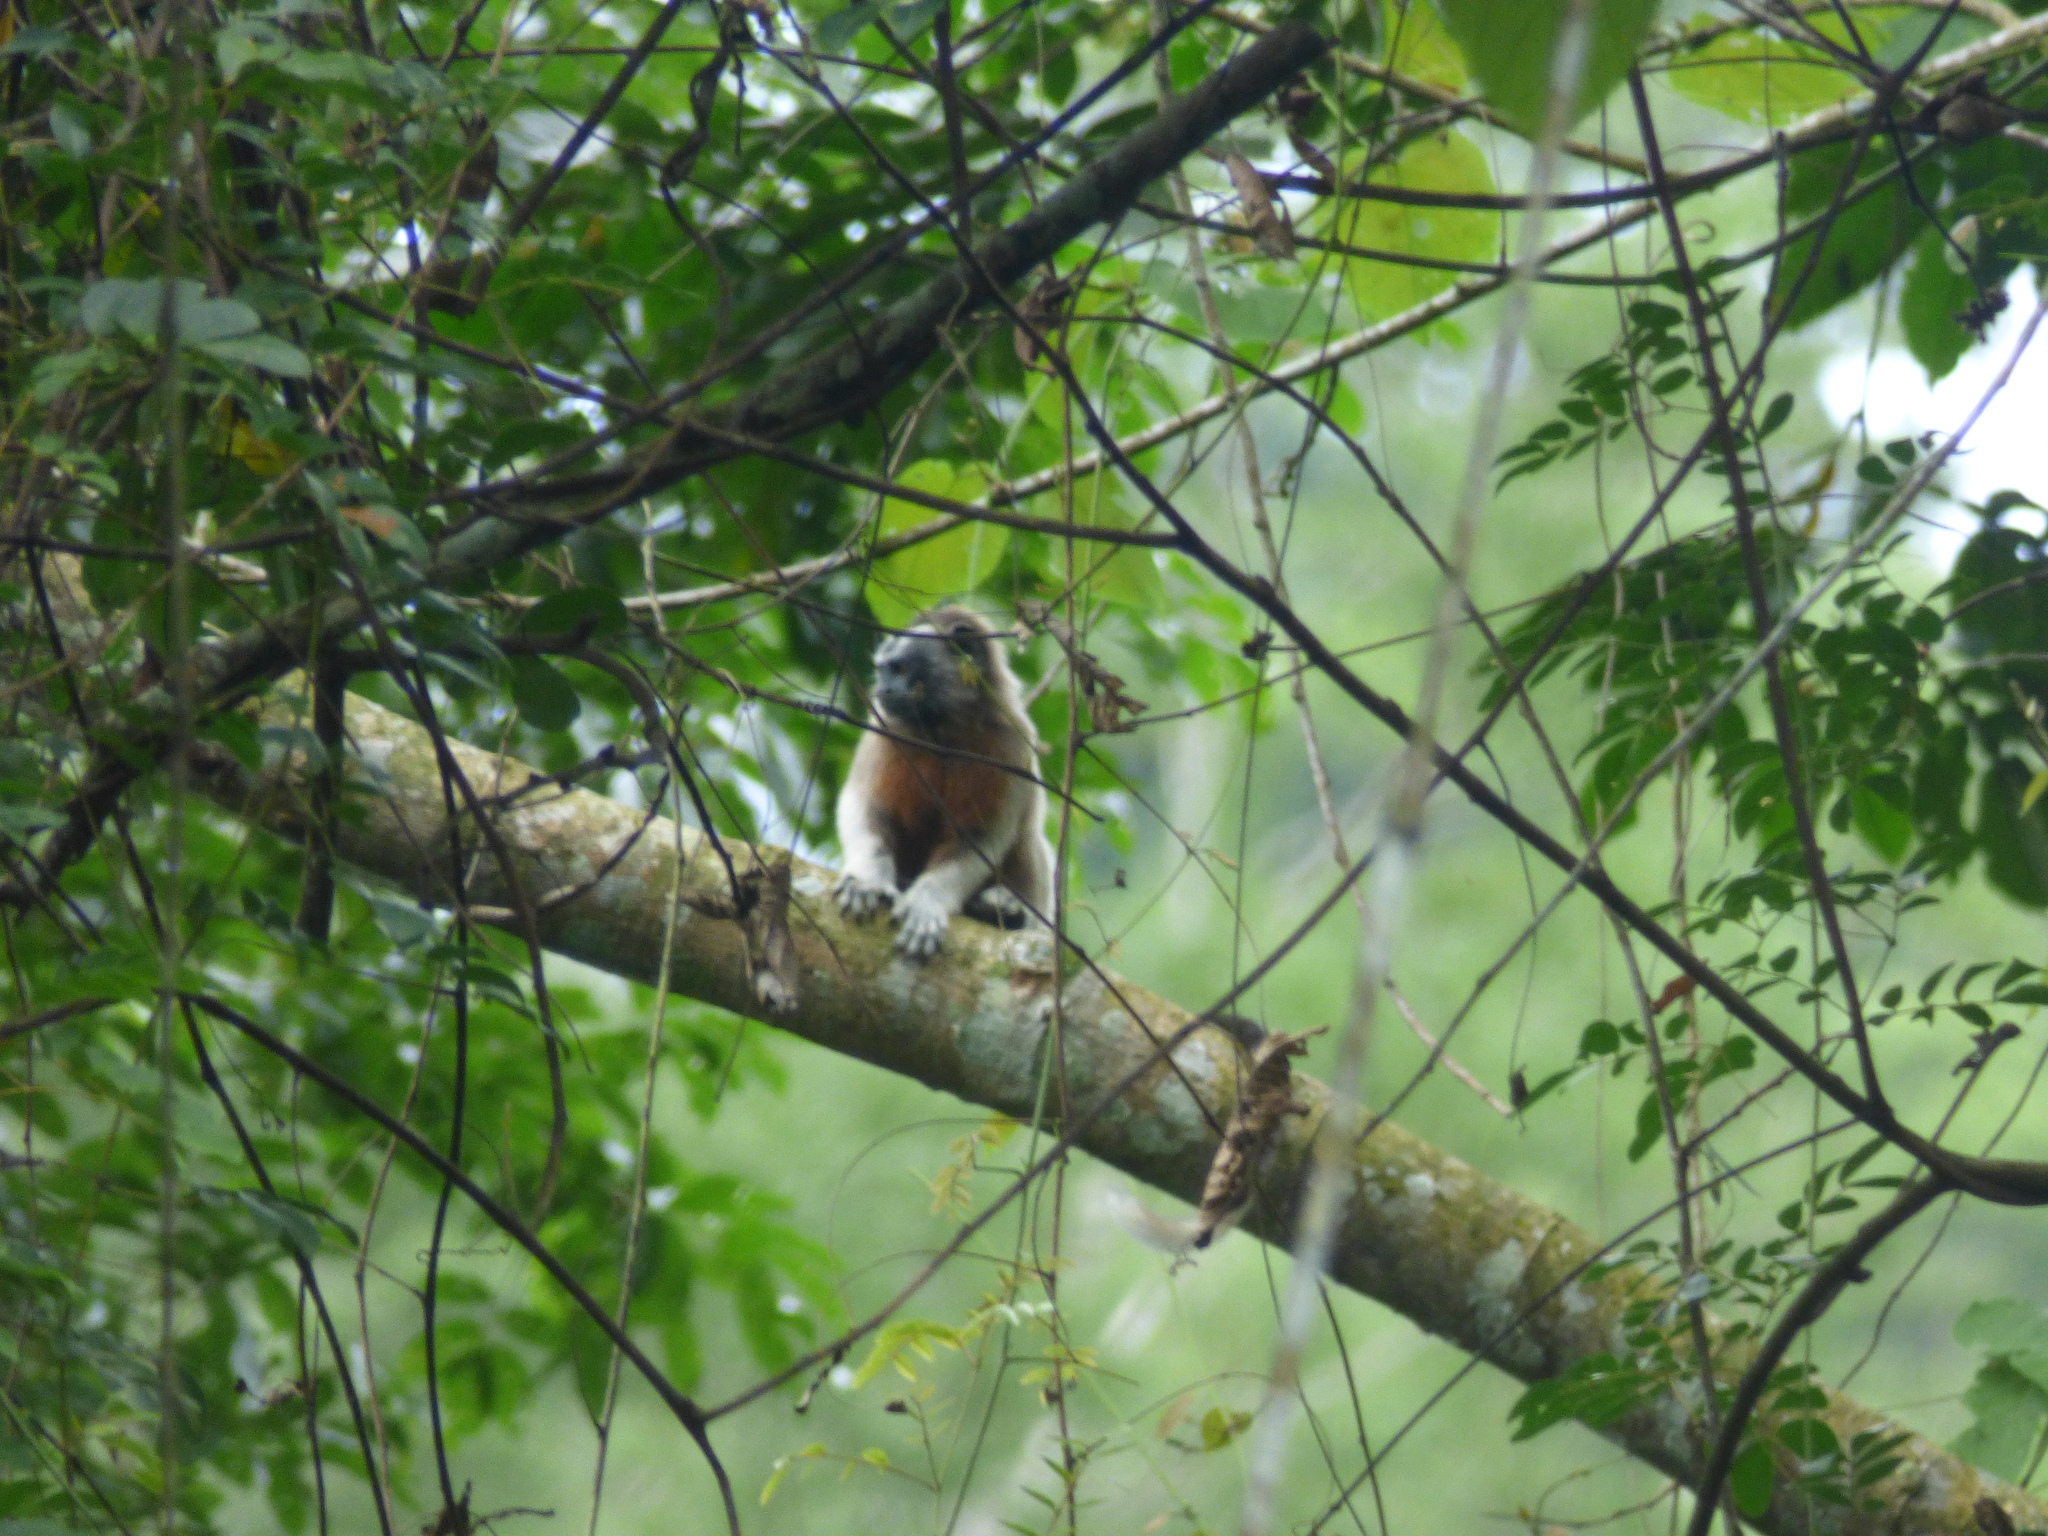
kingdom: Animalia
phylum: Chordata
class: Mammalia
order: Primates
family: Callitrichidae
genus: Saguinus
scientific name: Saguinus leucopus
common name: White-footed tamarin
